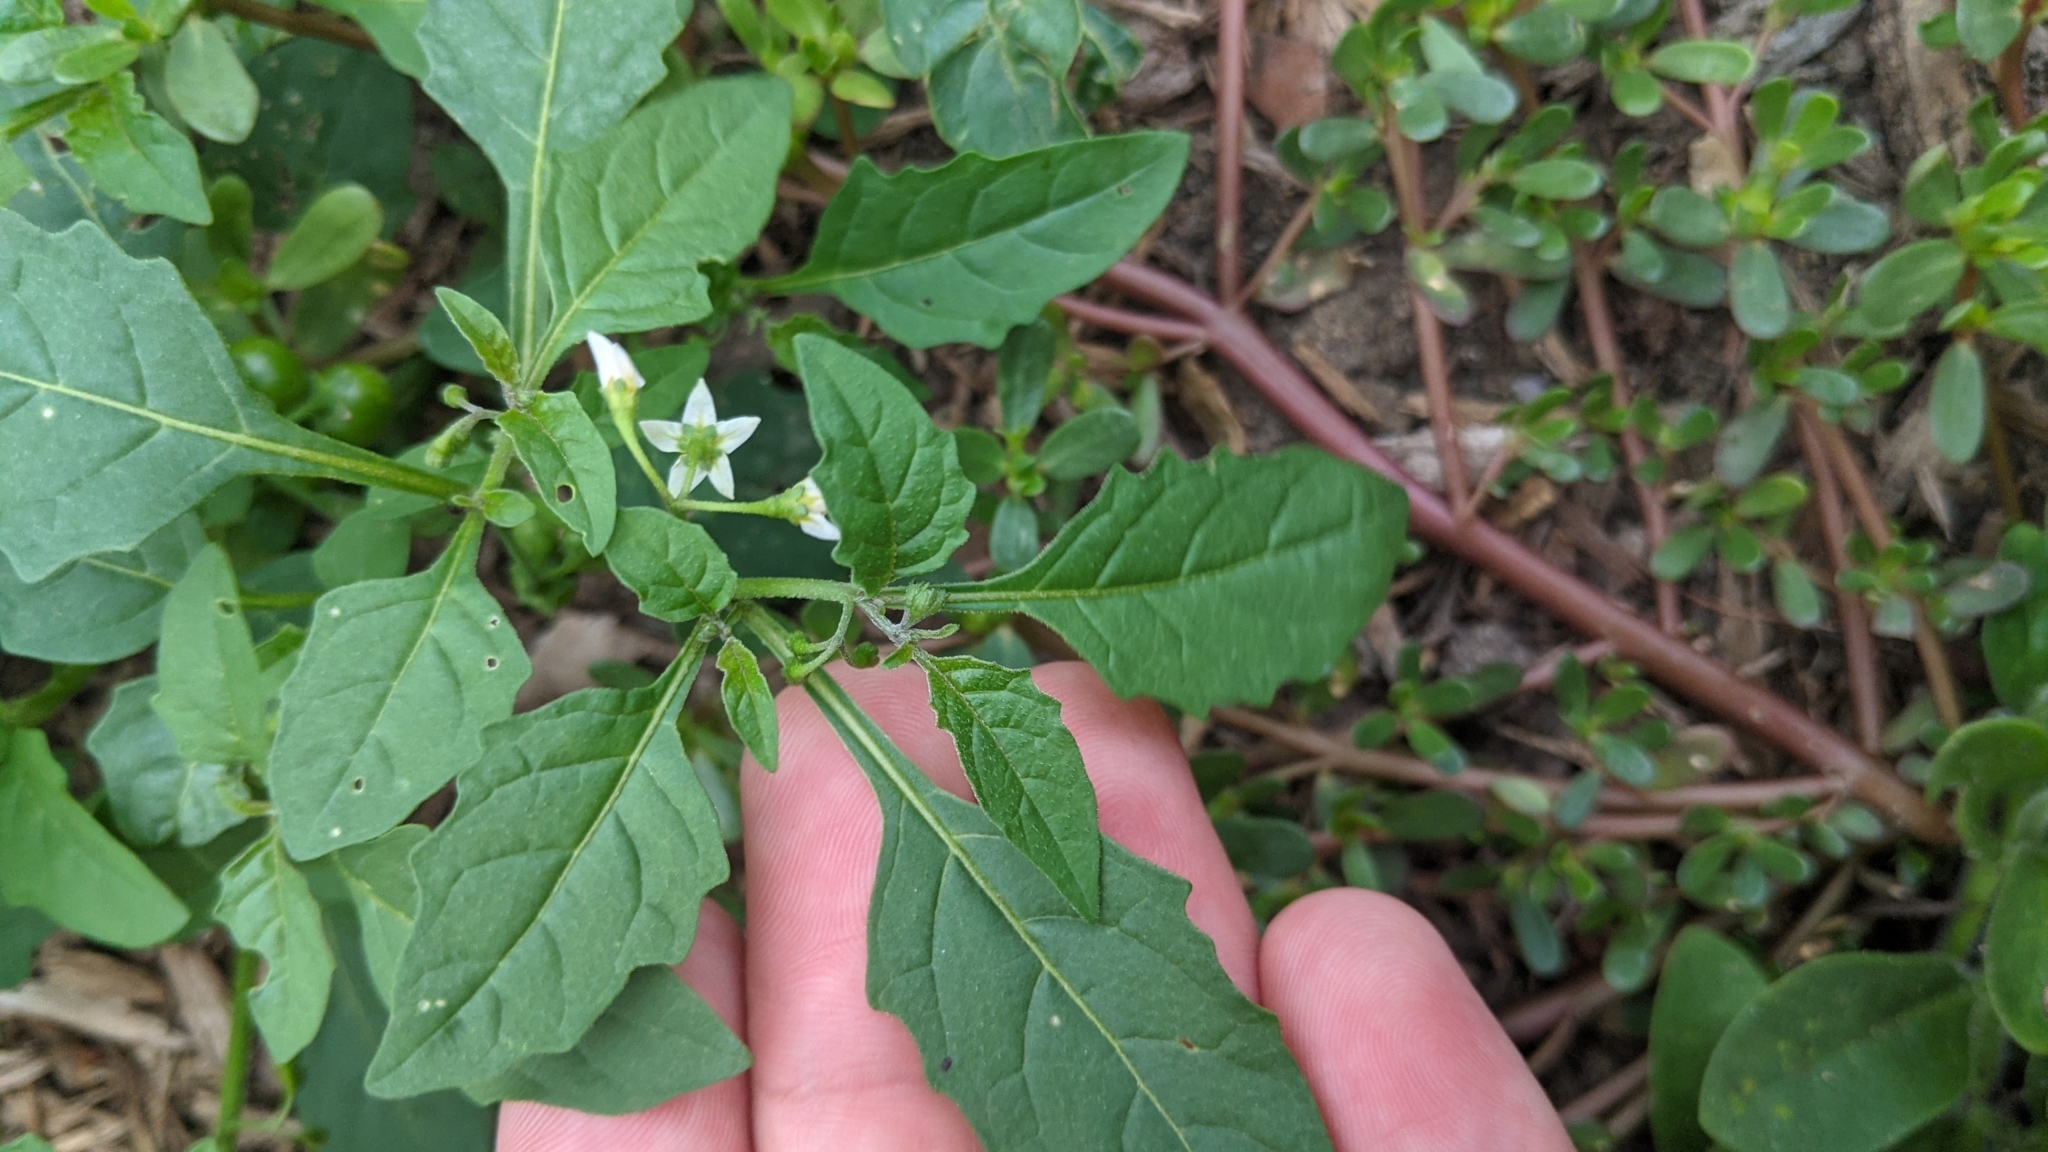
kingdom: Plantae
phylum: Tracheophyta
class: Magnoliopsida
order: Solanales
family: Solanaceae
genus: Solanum
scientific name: Solanum emulans
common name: Eastern black nightshade
